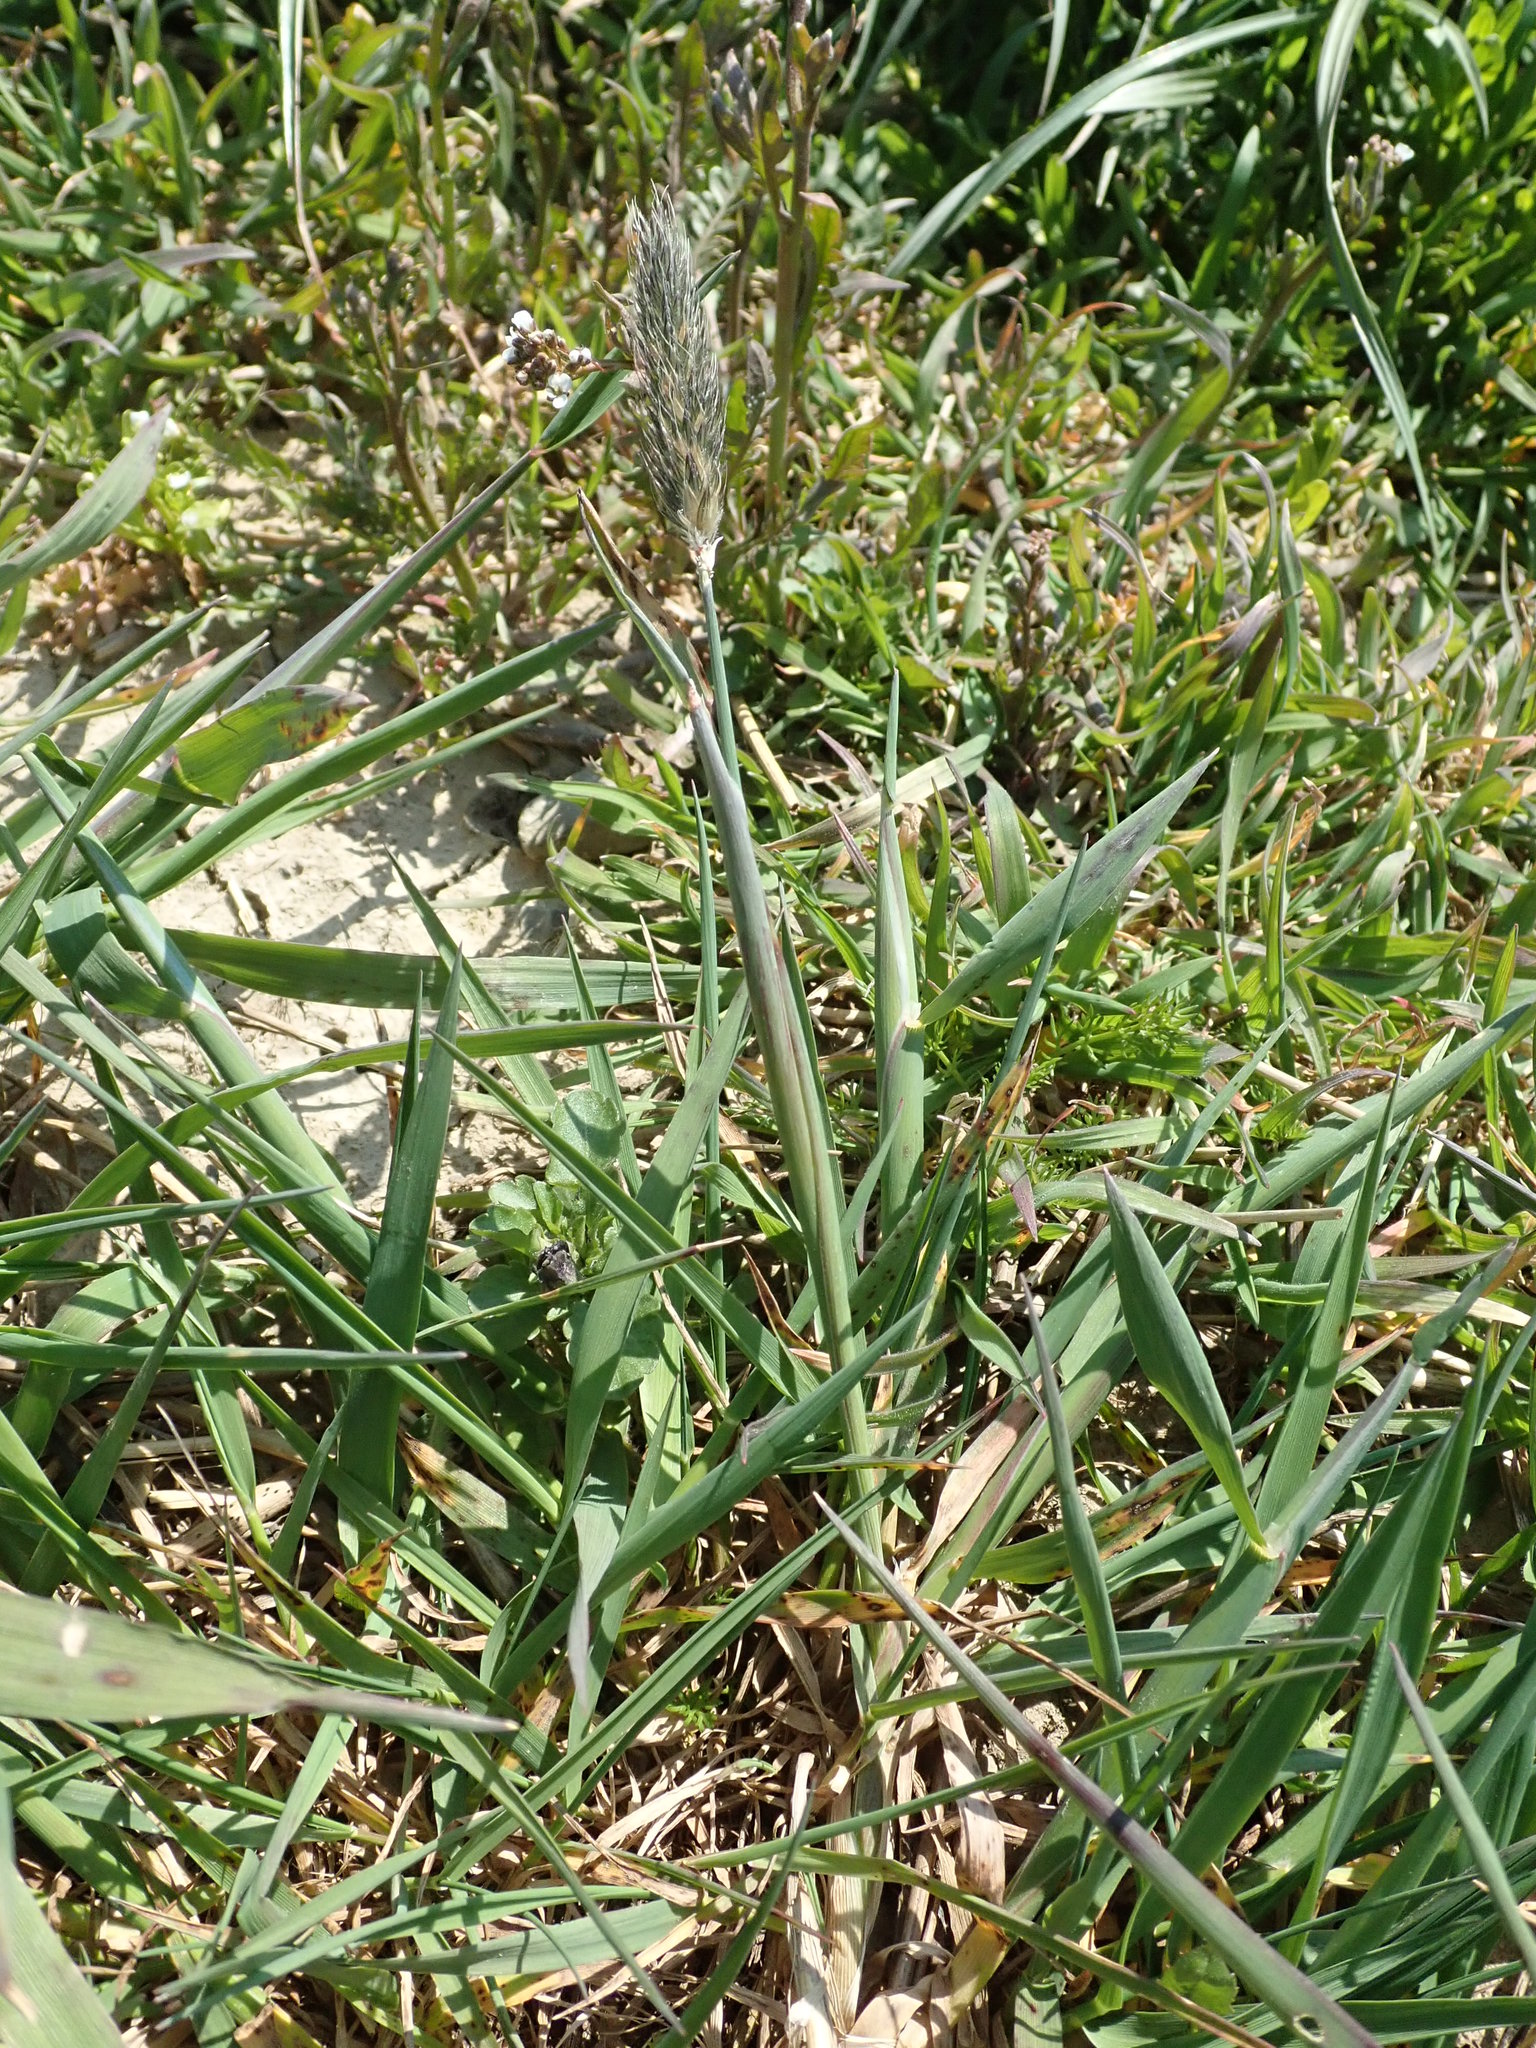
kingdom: Plantae
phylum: Tracheophyta
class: Liliopsida
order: Poales
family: Poaceae
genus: Alopecurus
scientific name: Alopecurus pratensis
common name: Meadow foxtail
